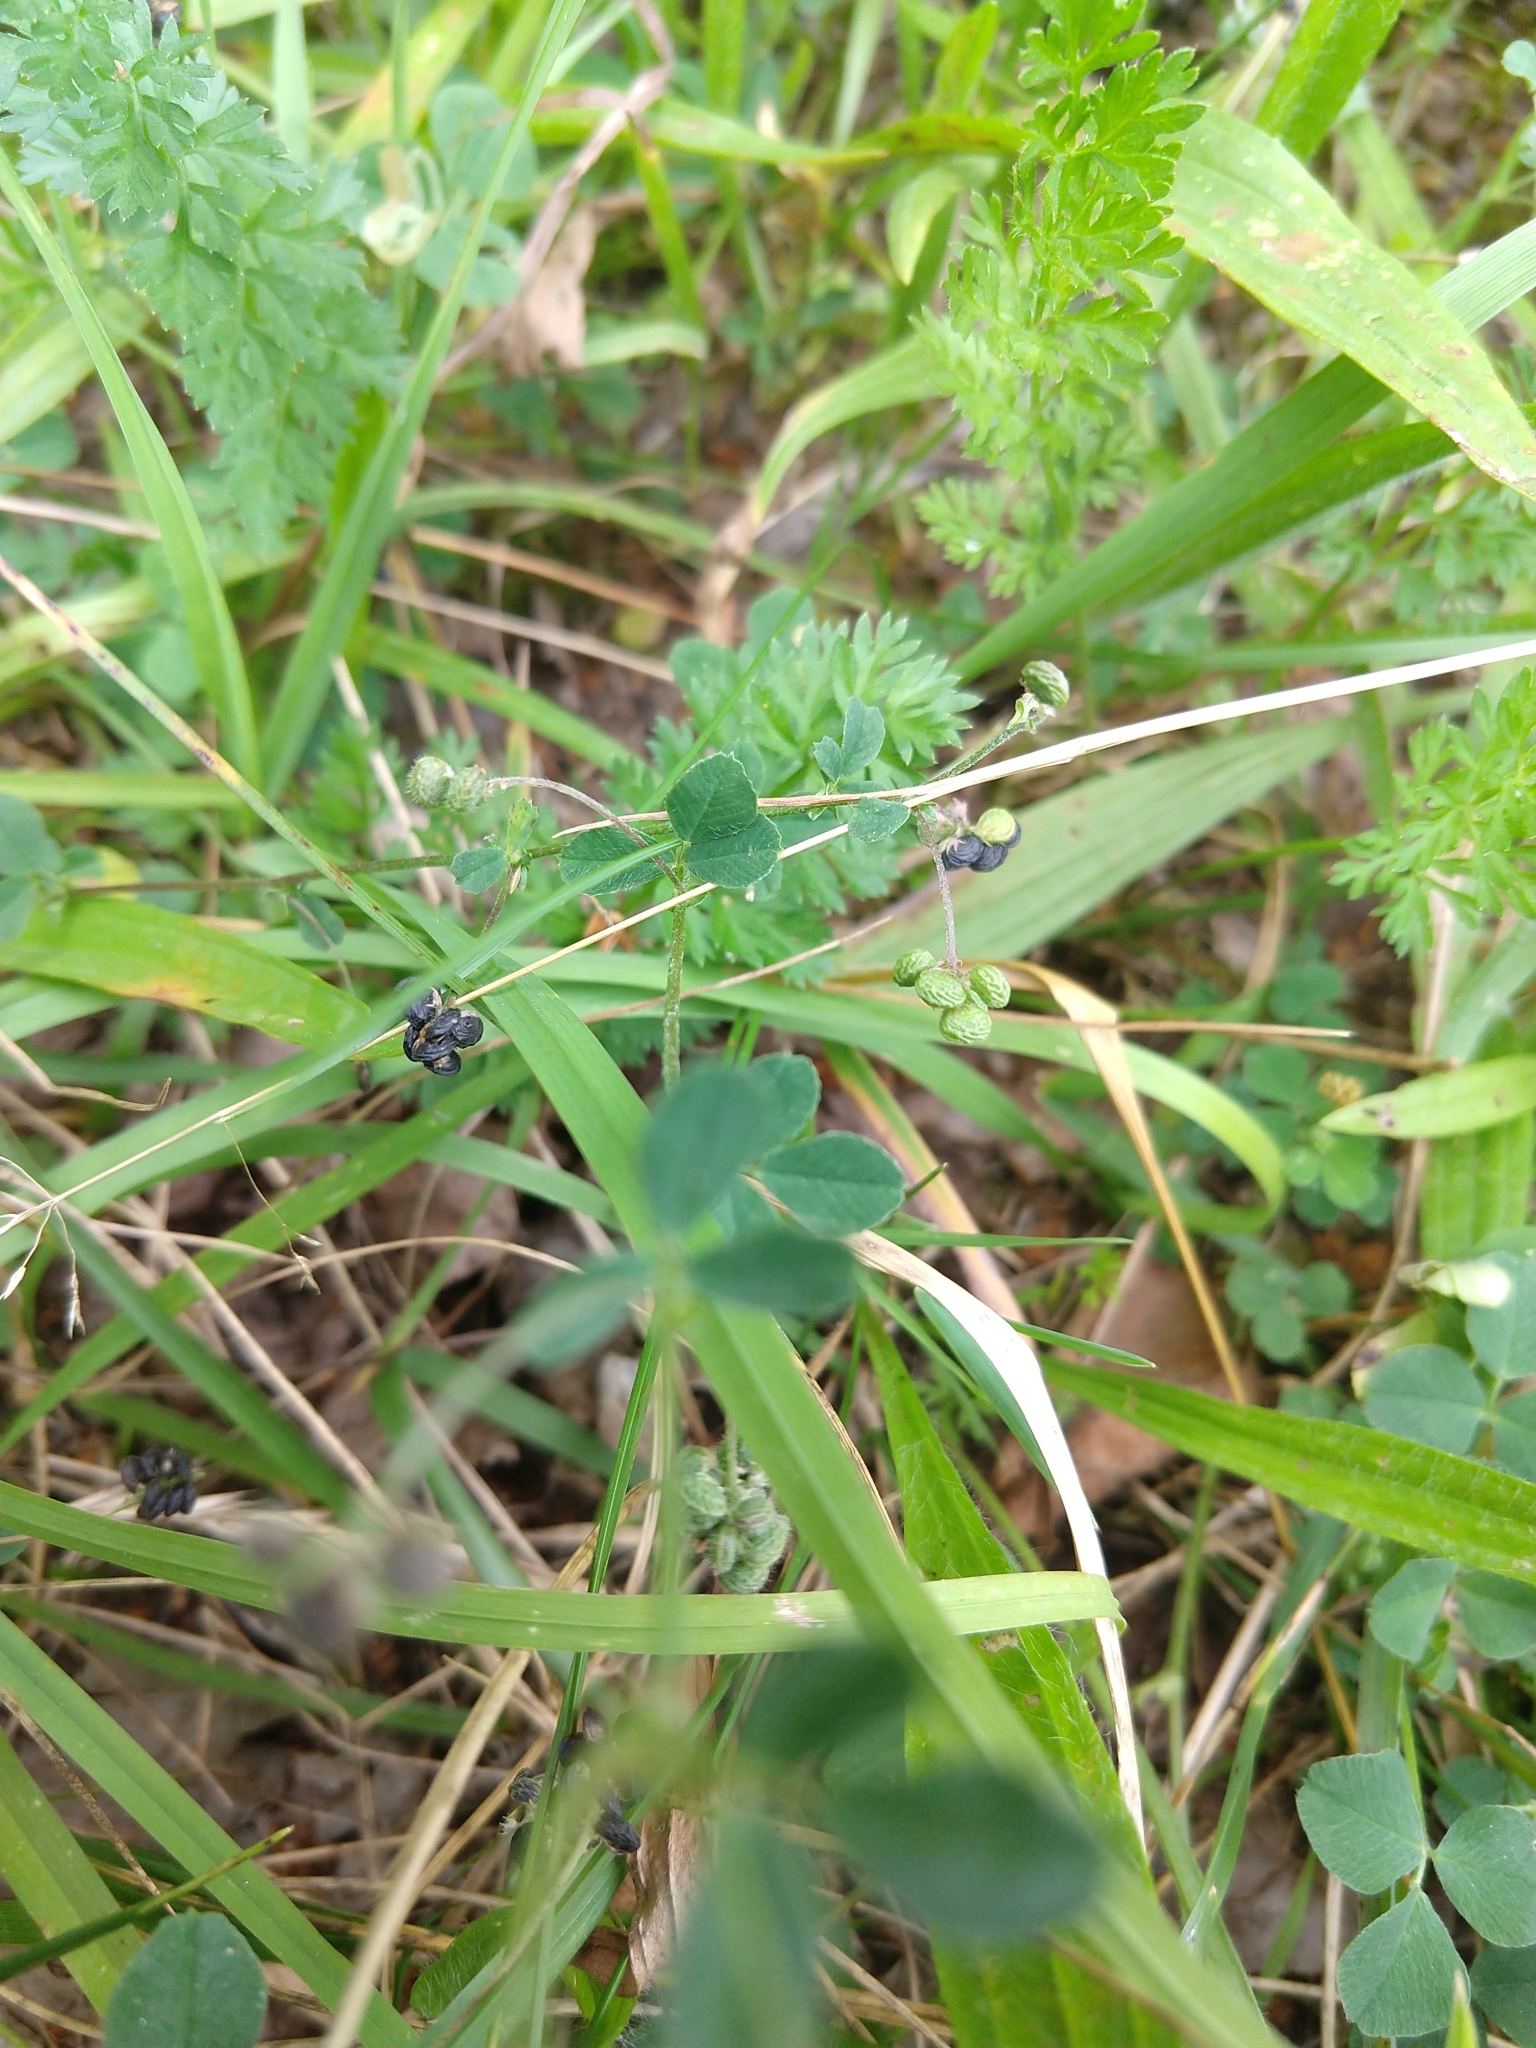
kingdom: Plantae
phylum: Tracheophyta
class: Magnoliopsida
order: Fabales
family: Fabaceae
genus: Medicago
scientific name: Medicago lupulina
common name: Black medick
